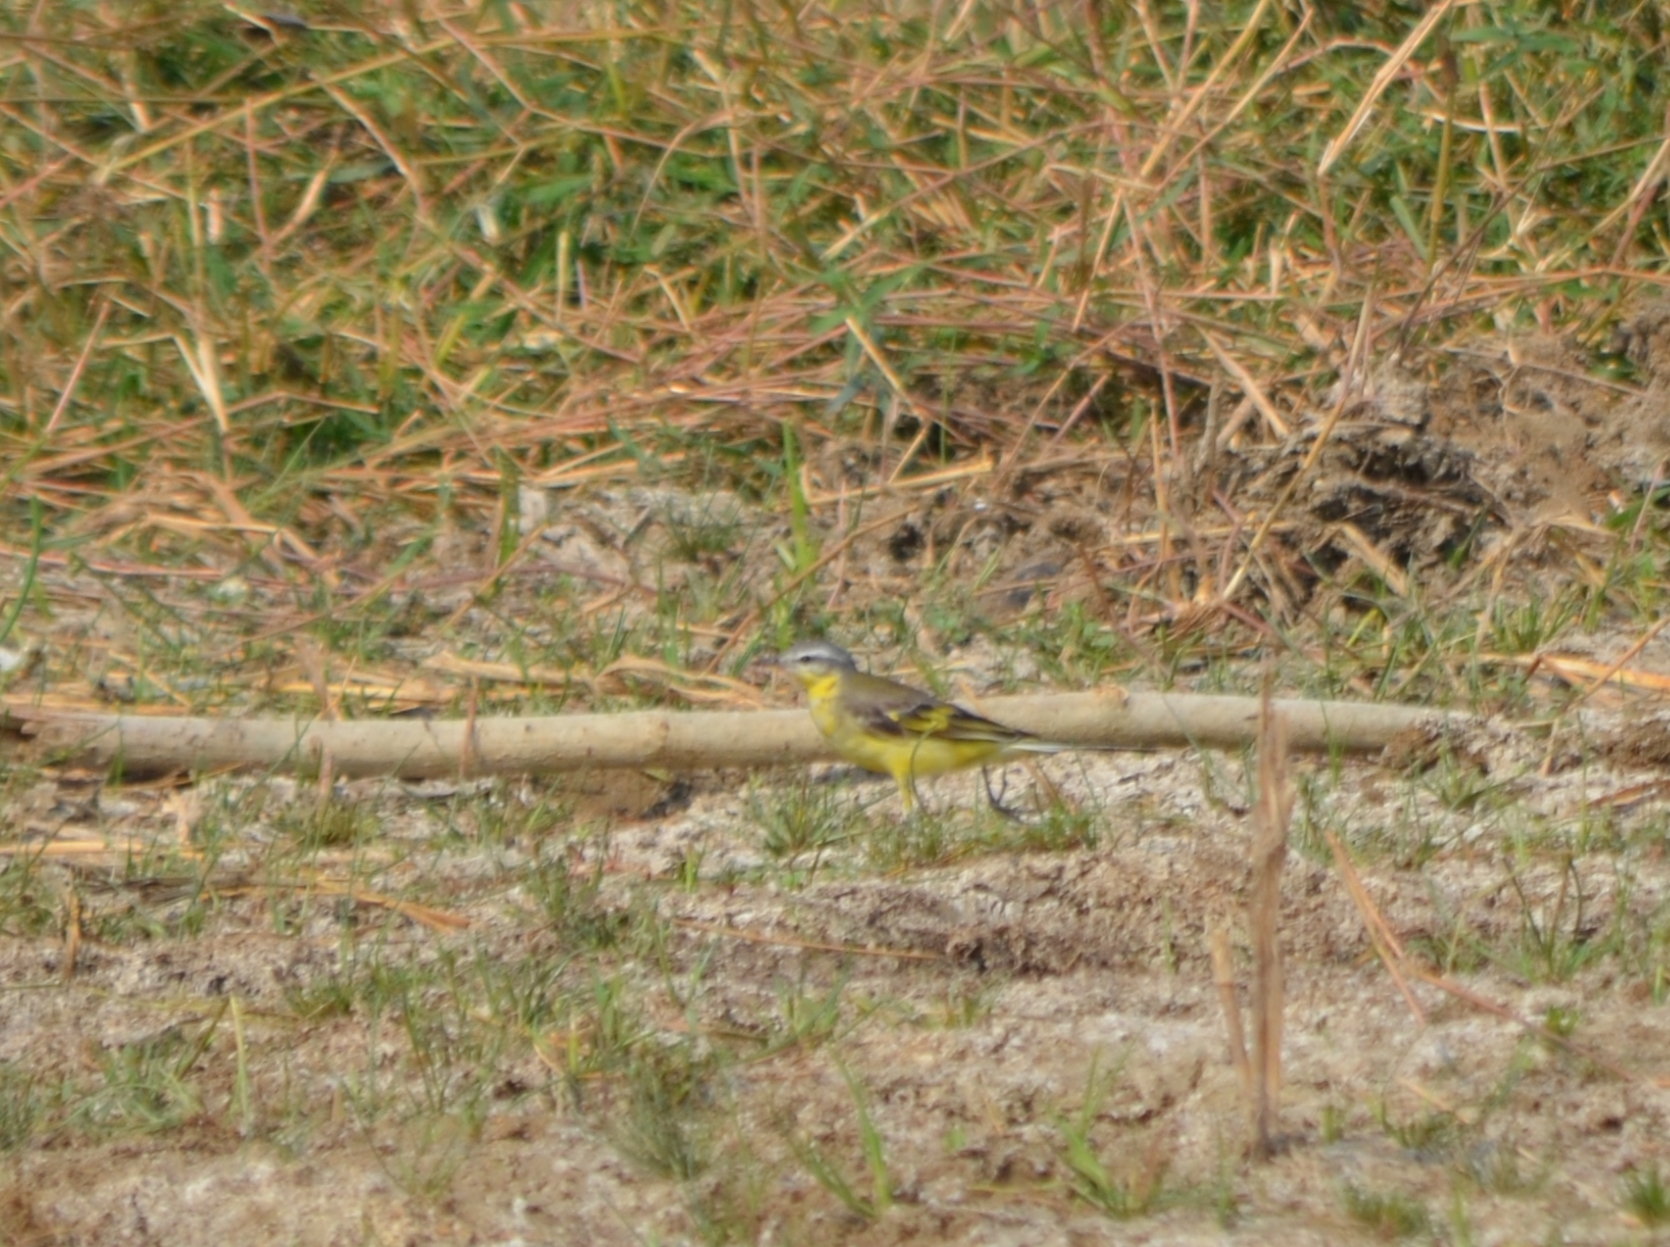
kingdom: Animalia
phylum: Chordata
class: Aves
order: Passeriformes
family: Motacillidae
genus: Motacilla
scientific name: Motacilla flava
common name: Western yellow wagtail
